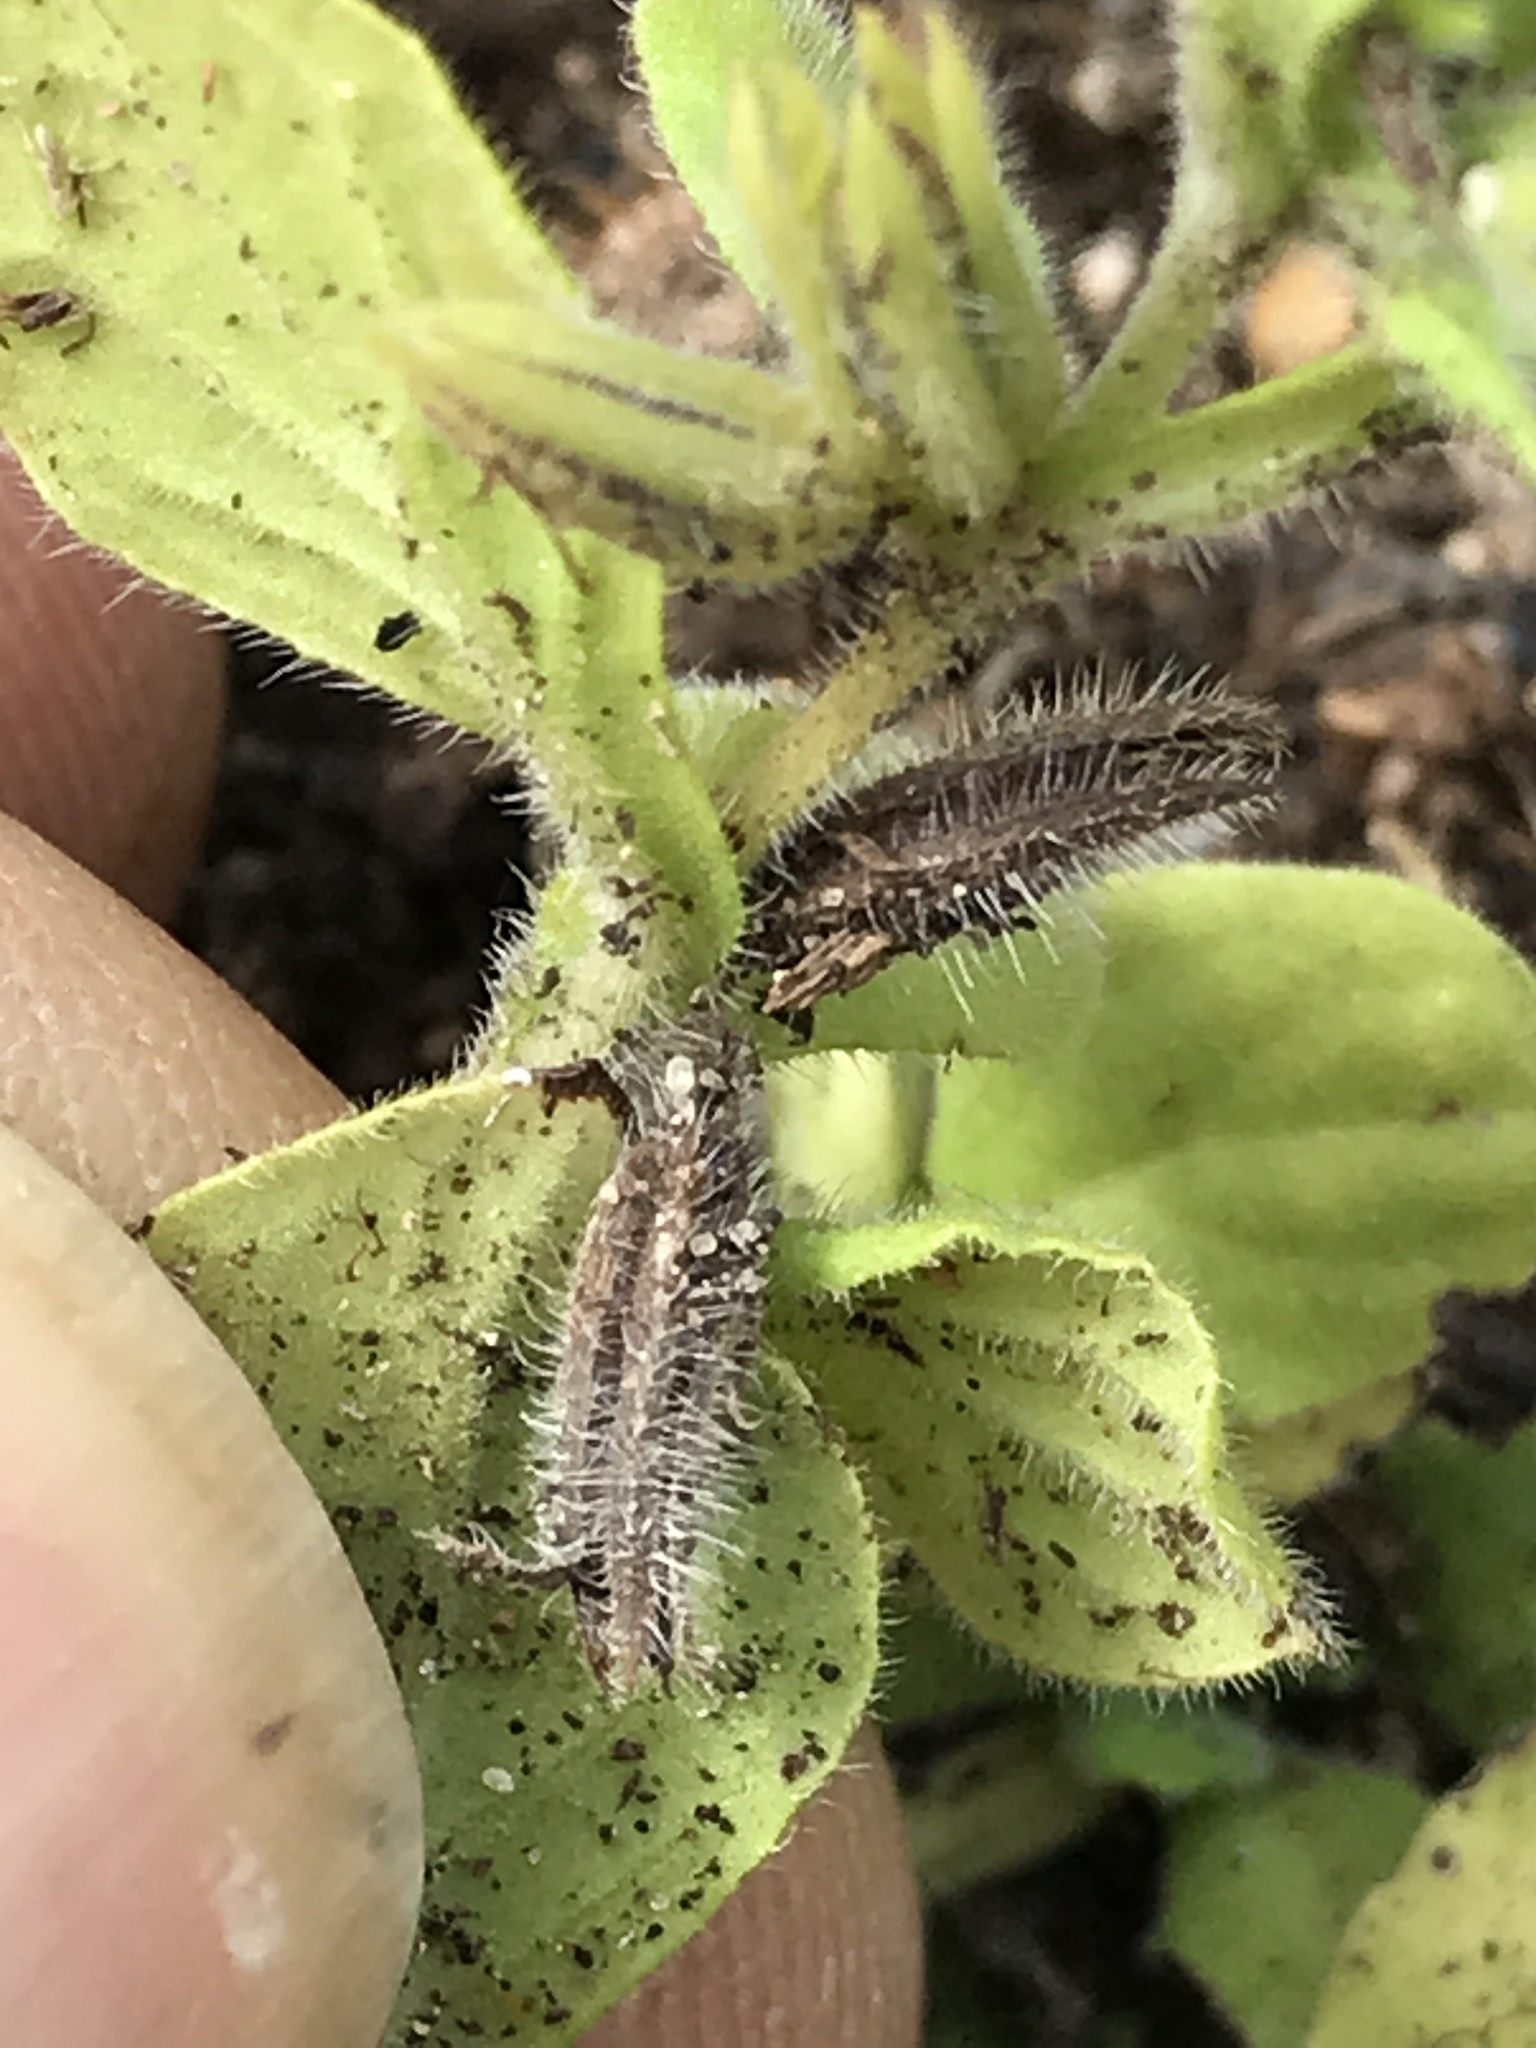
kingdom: Plantae
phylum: Tracheophyta
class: Magnoliopsida
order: Boraginales
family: Namaceae
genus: Nama
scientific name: Nama jamaicensis
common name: Jamaicanweed
